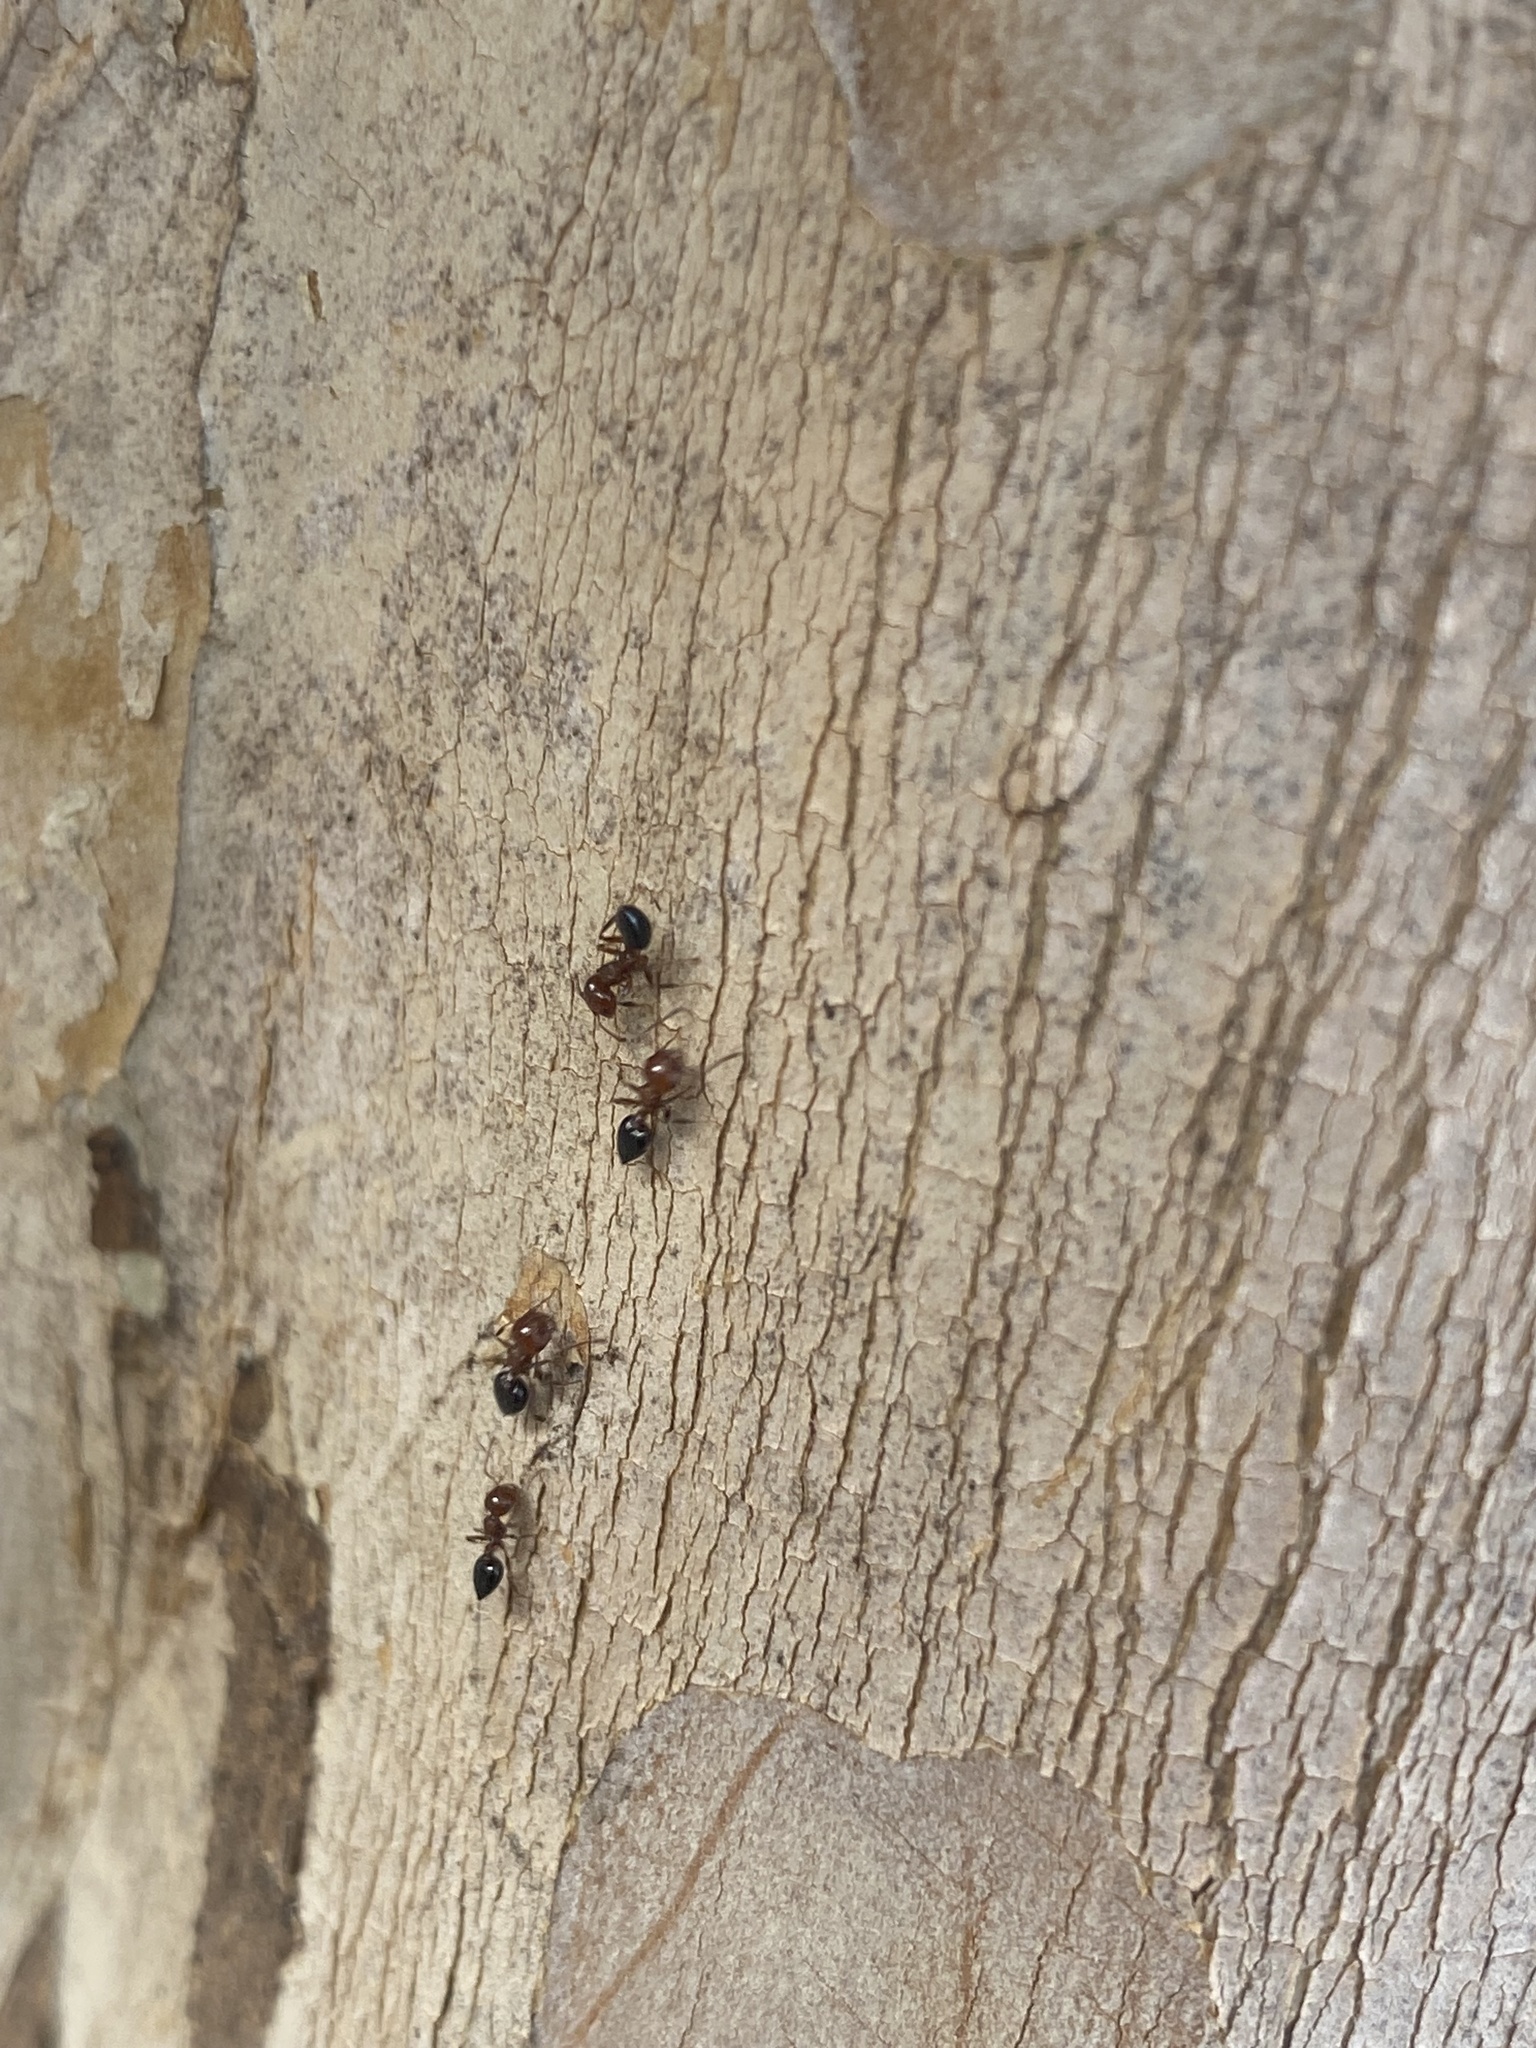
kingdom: Animalia
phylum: Arthropoda
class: Insecta
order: Hymenoptera
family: Formicidae
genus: Crematogaster
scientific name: Crematogaster laeviuscula
